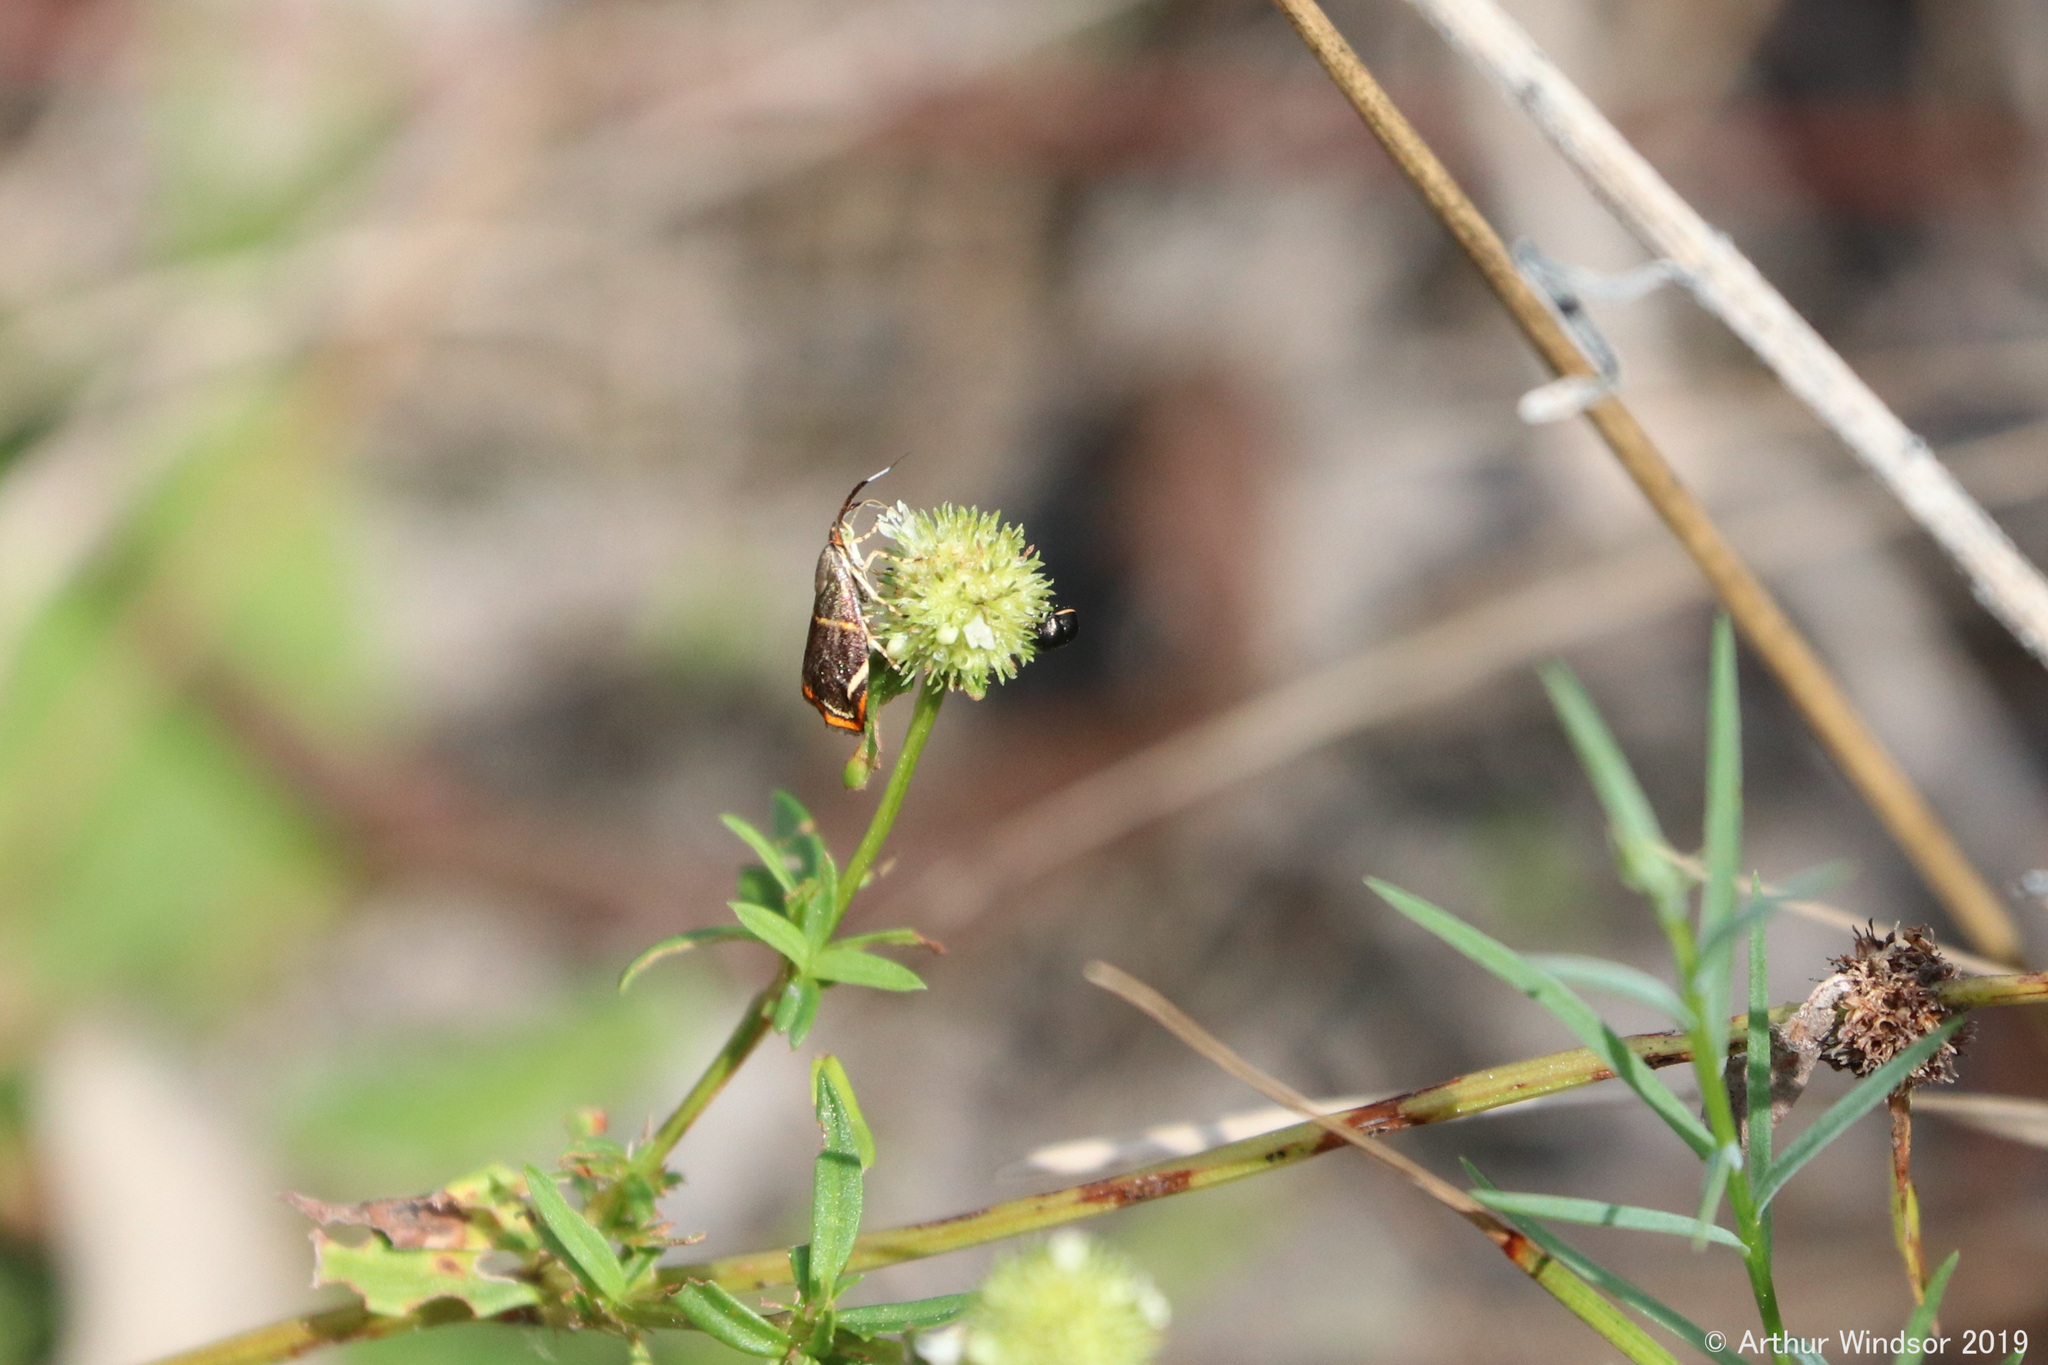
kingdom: Animalia
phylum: Arthropoda
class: Insecta
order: Lepidoptera
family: Choreutidae
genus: Hemerophila
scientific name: Hemerophila
